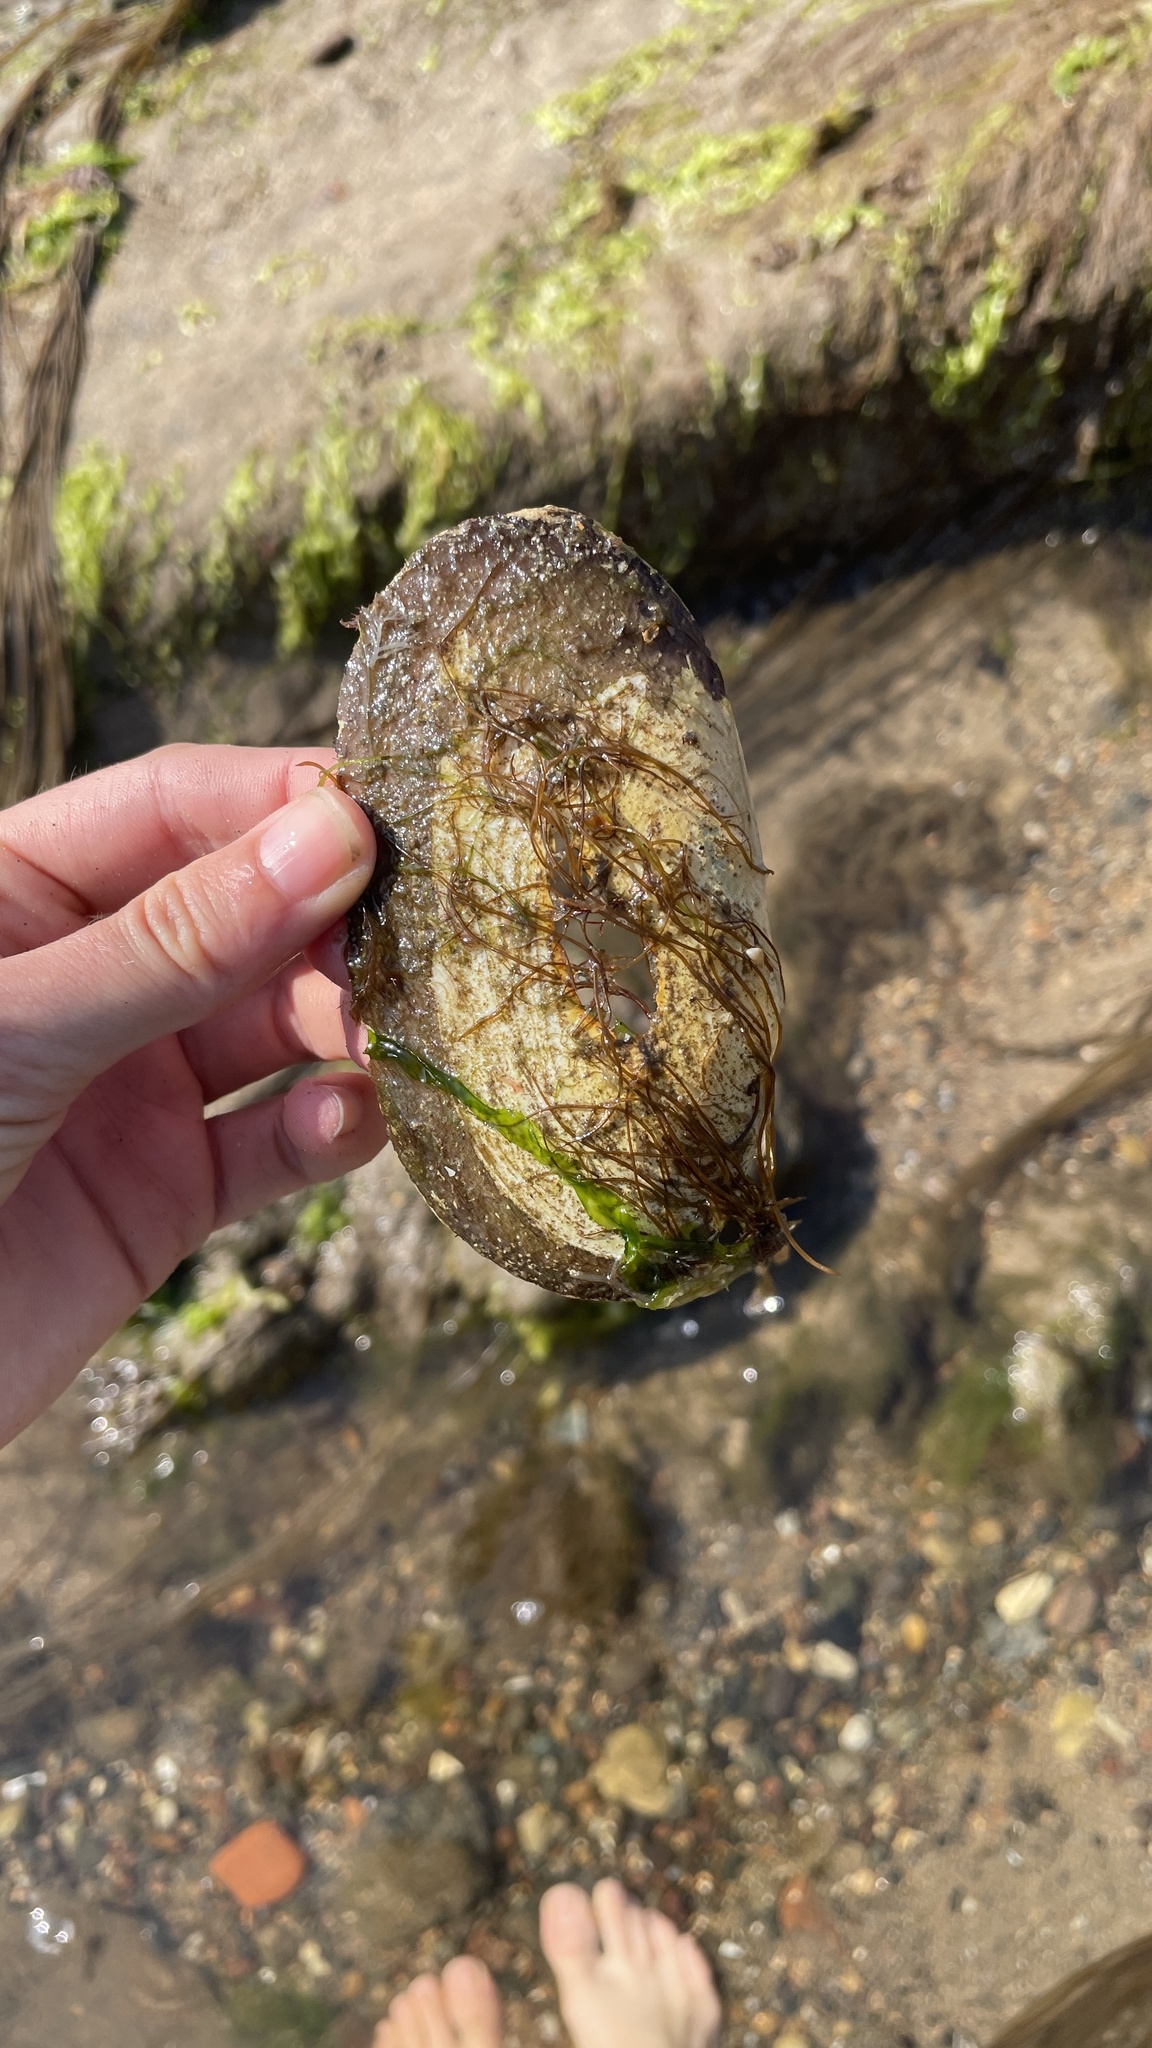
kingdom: Animalia
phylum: Mollusca
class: Bivalvia
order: Venerida
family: Mactridae
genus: Lutraria
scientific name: Lutraria lutraria
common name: Common otter shell
